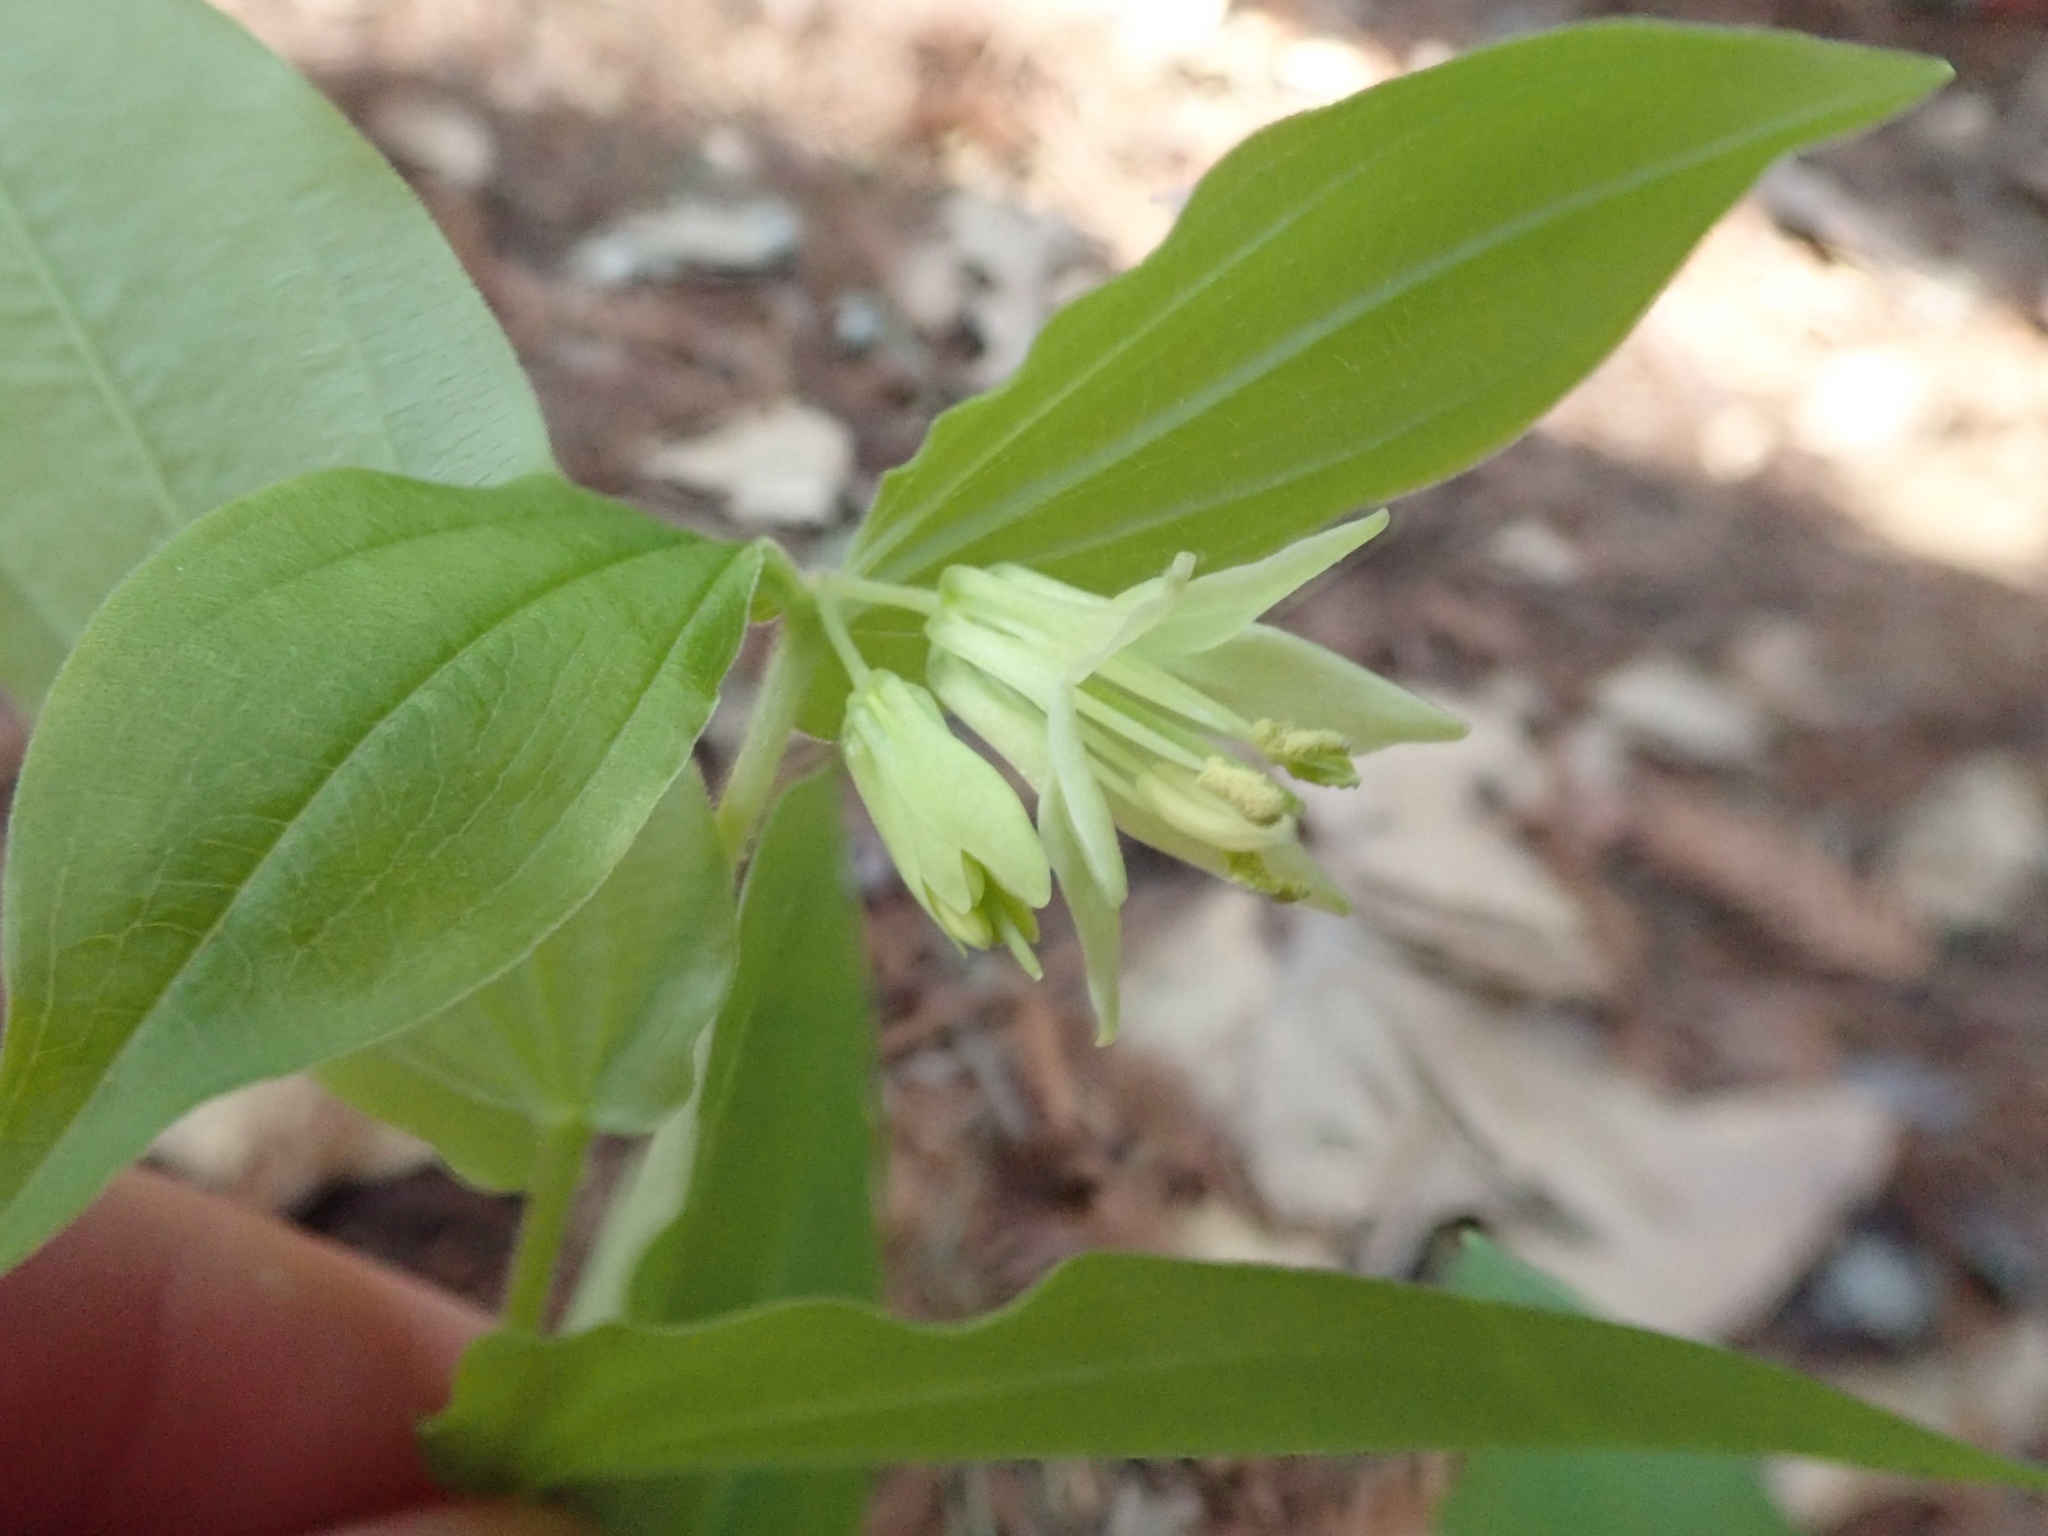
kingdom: Plantae
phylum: Tracheophyta
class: Liliopsida
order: Liliales
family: Liliaceae
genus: Prosartes
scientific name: Prosartes hookeri
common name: Fairy-bells
